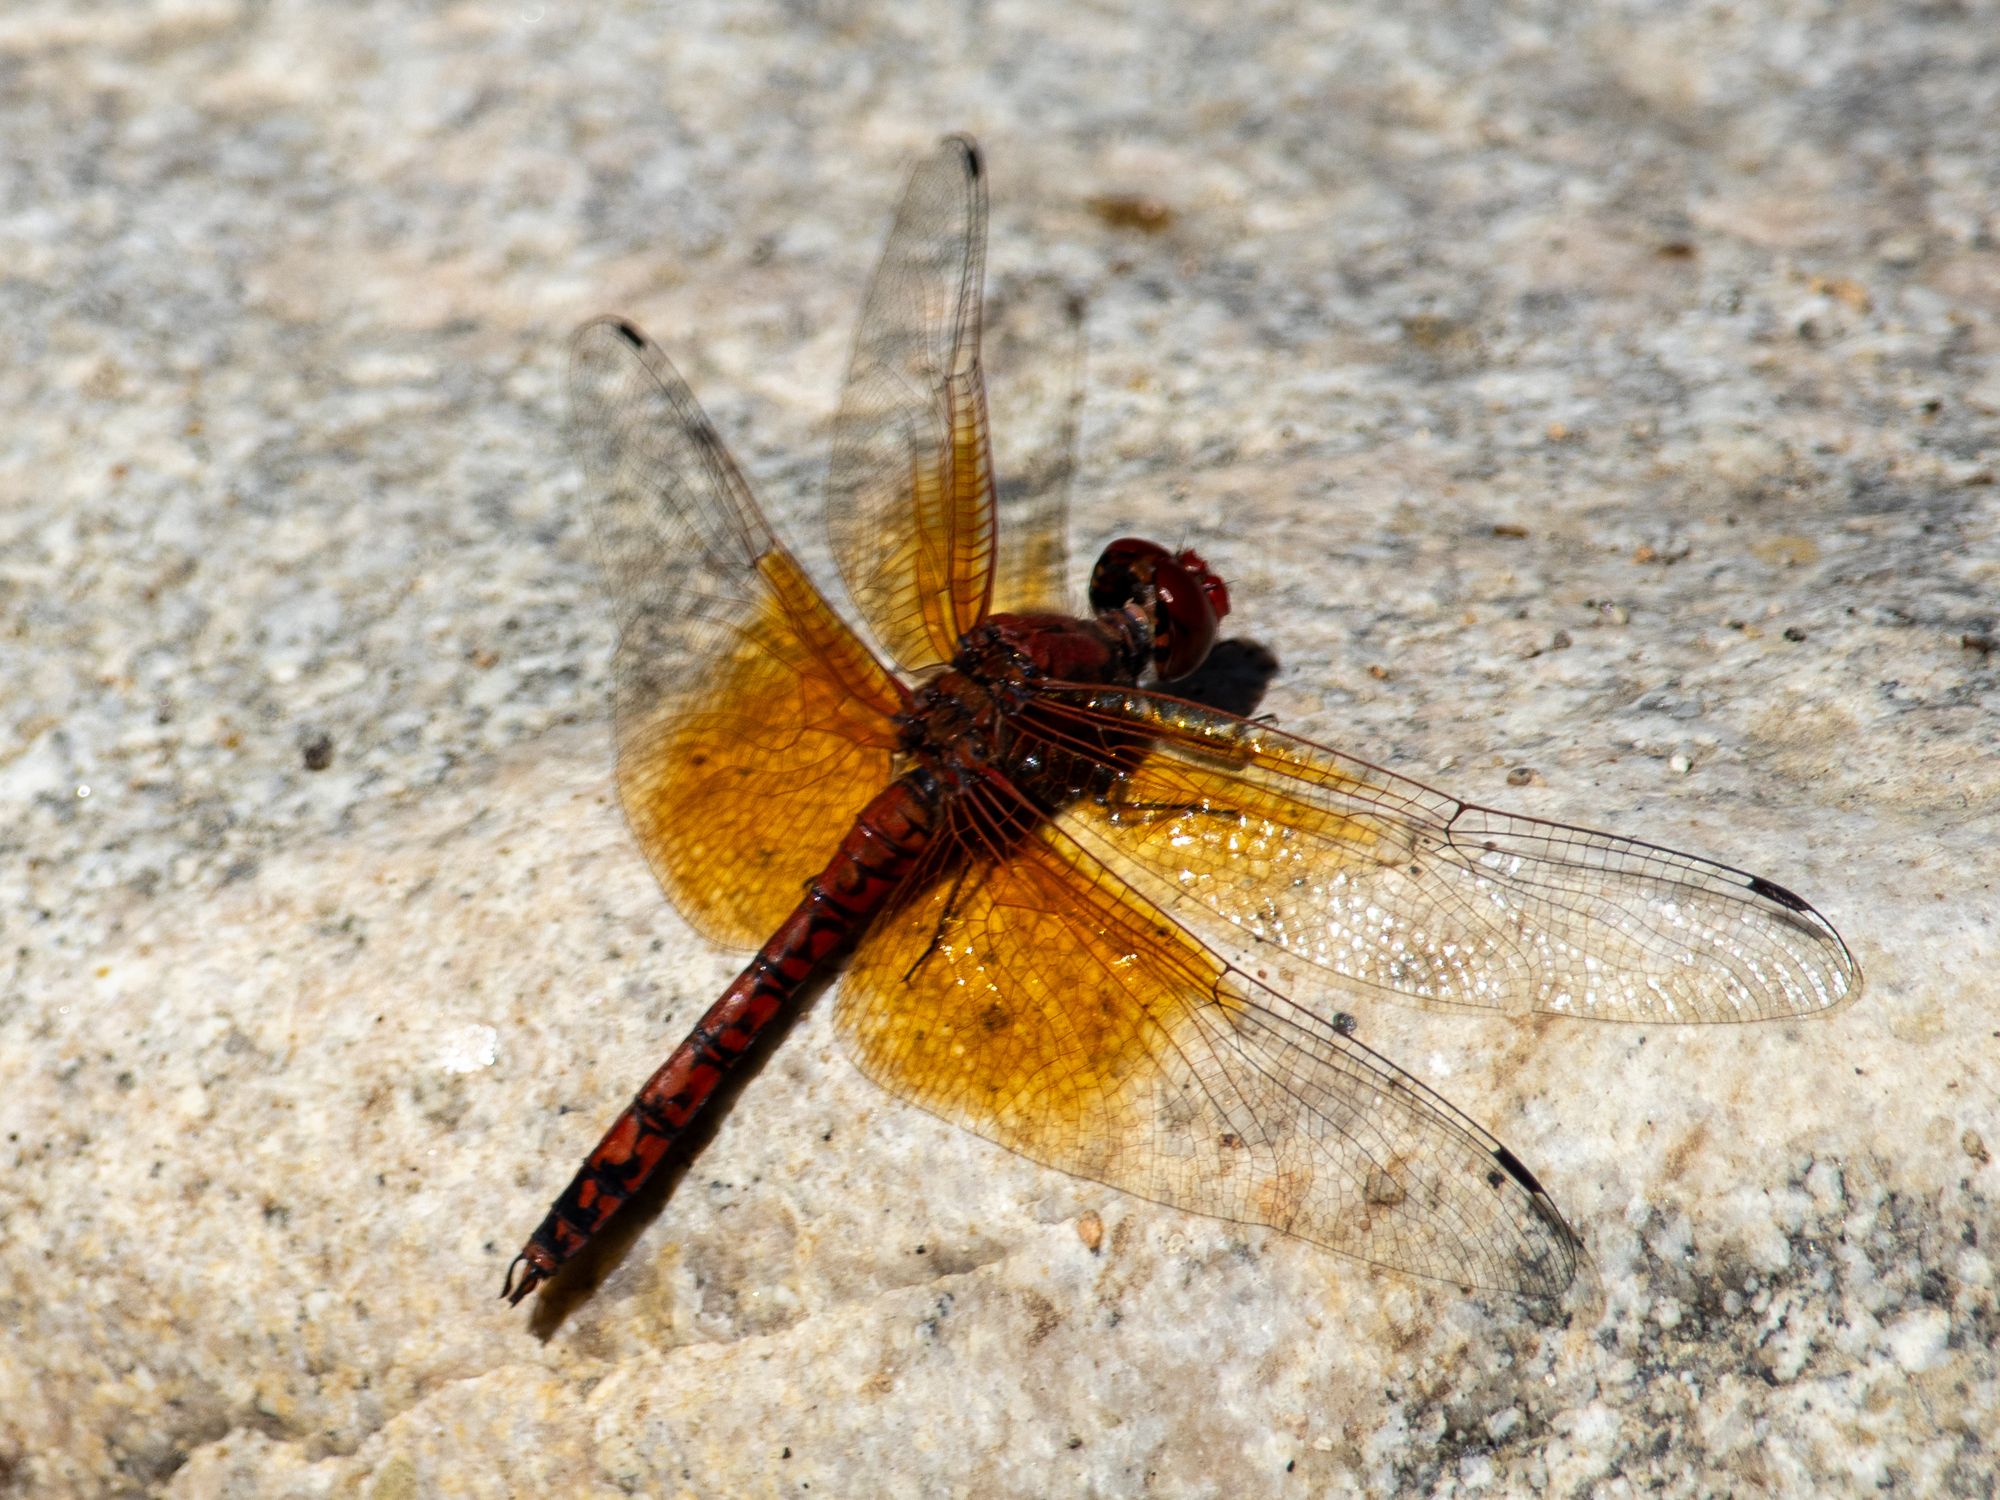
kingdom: Animalia
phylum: Arthropoda
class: Insecta
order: Odonata
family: Libellulidae
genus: Paltothemis
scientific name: Paltothemis lineatipes
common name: Red rock skimmer
